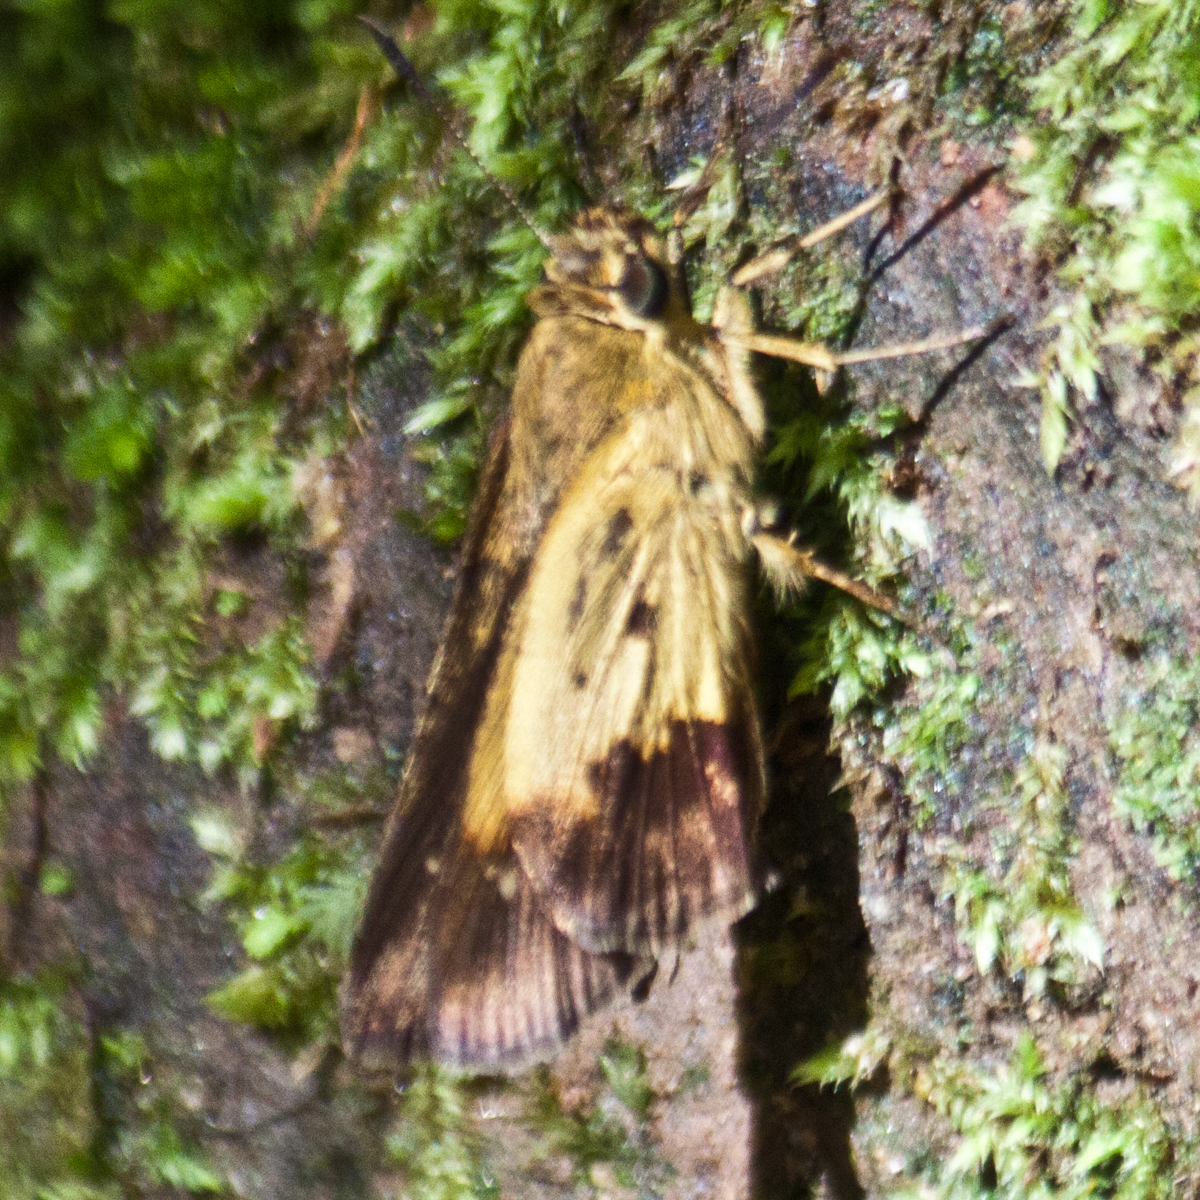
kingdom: Animalia
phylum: Arthropoda
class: Insecta
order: Lepidoptera
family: Hesperiidae
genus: Zographetus
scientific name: Zographetus satwa
